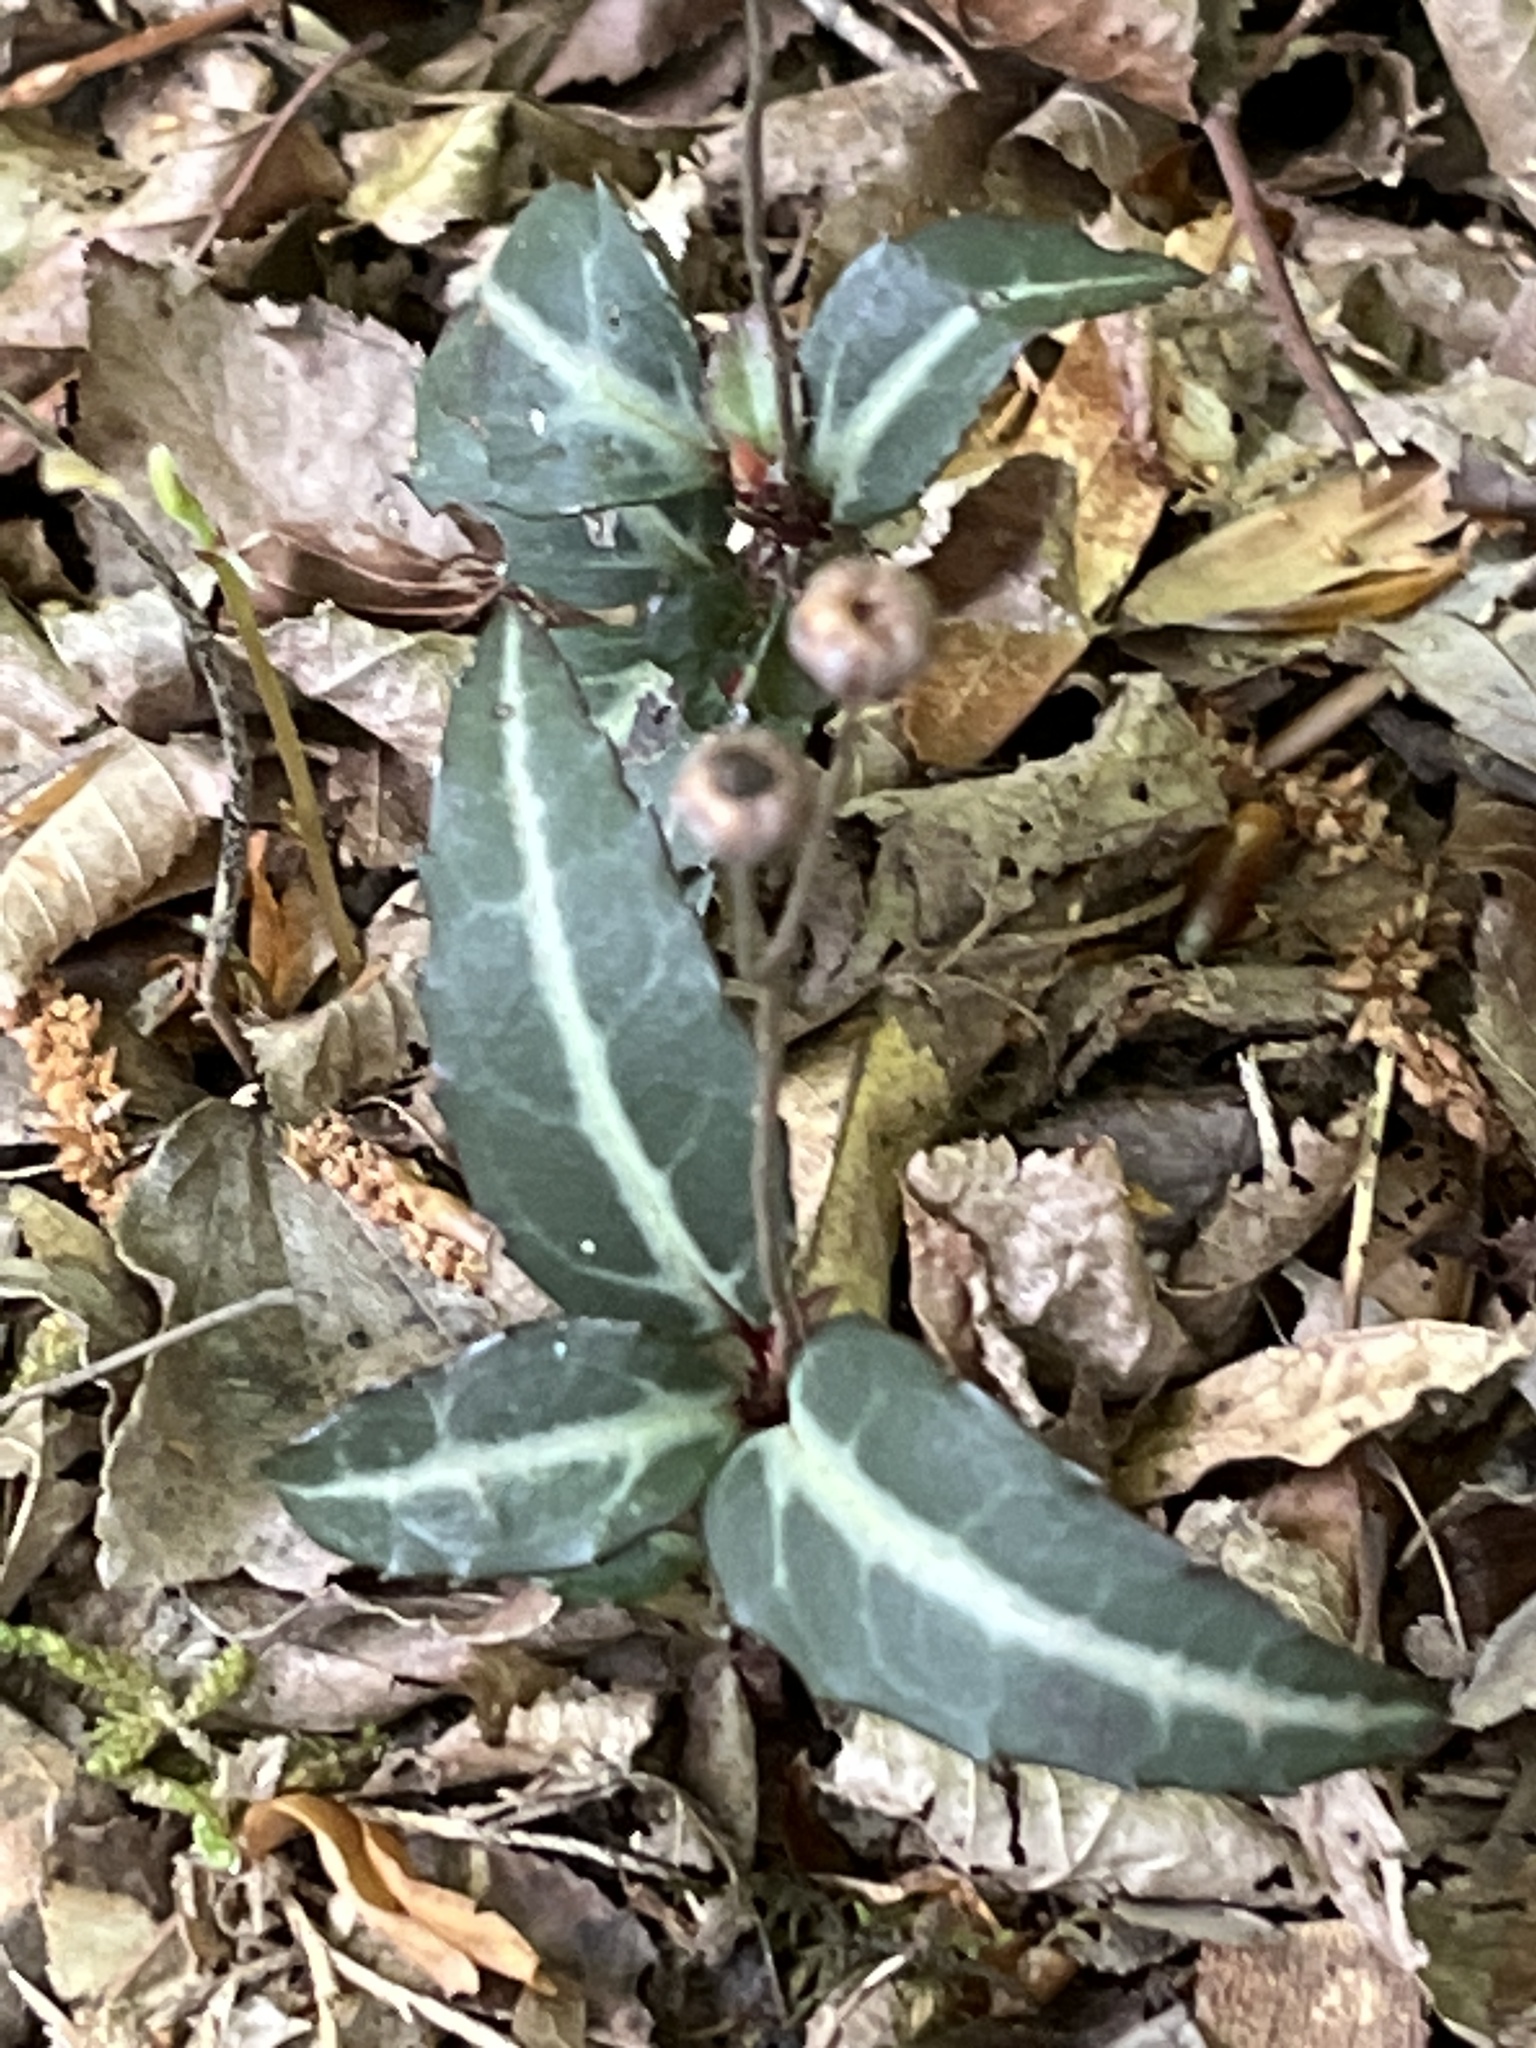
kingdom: Plantae
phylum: Tracheophyta
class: Magnoliopsida
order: Ericales
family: Ericaceae
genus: Chimaphila
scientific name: Chimaphila maculata
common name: Spotted pipsissewa
